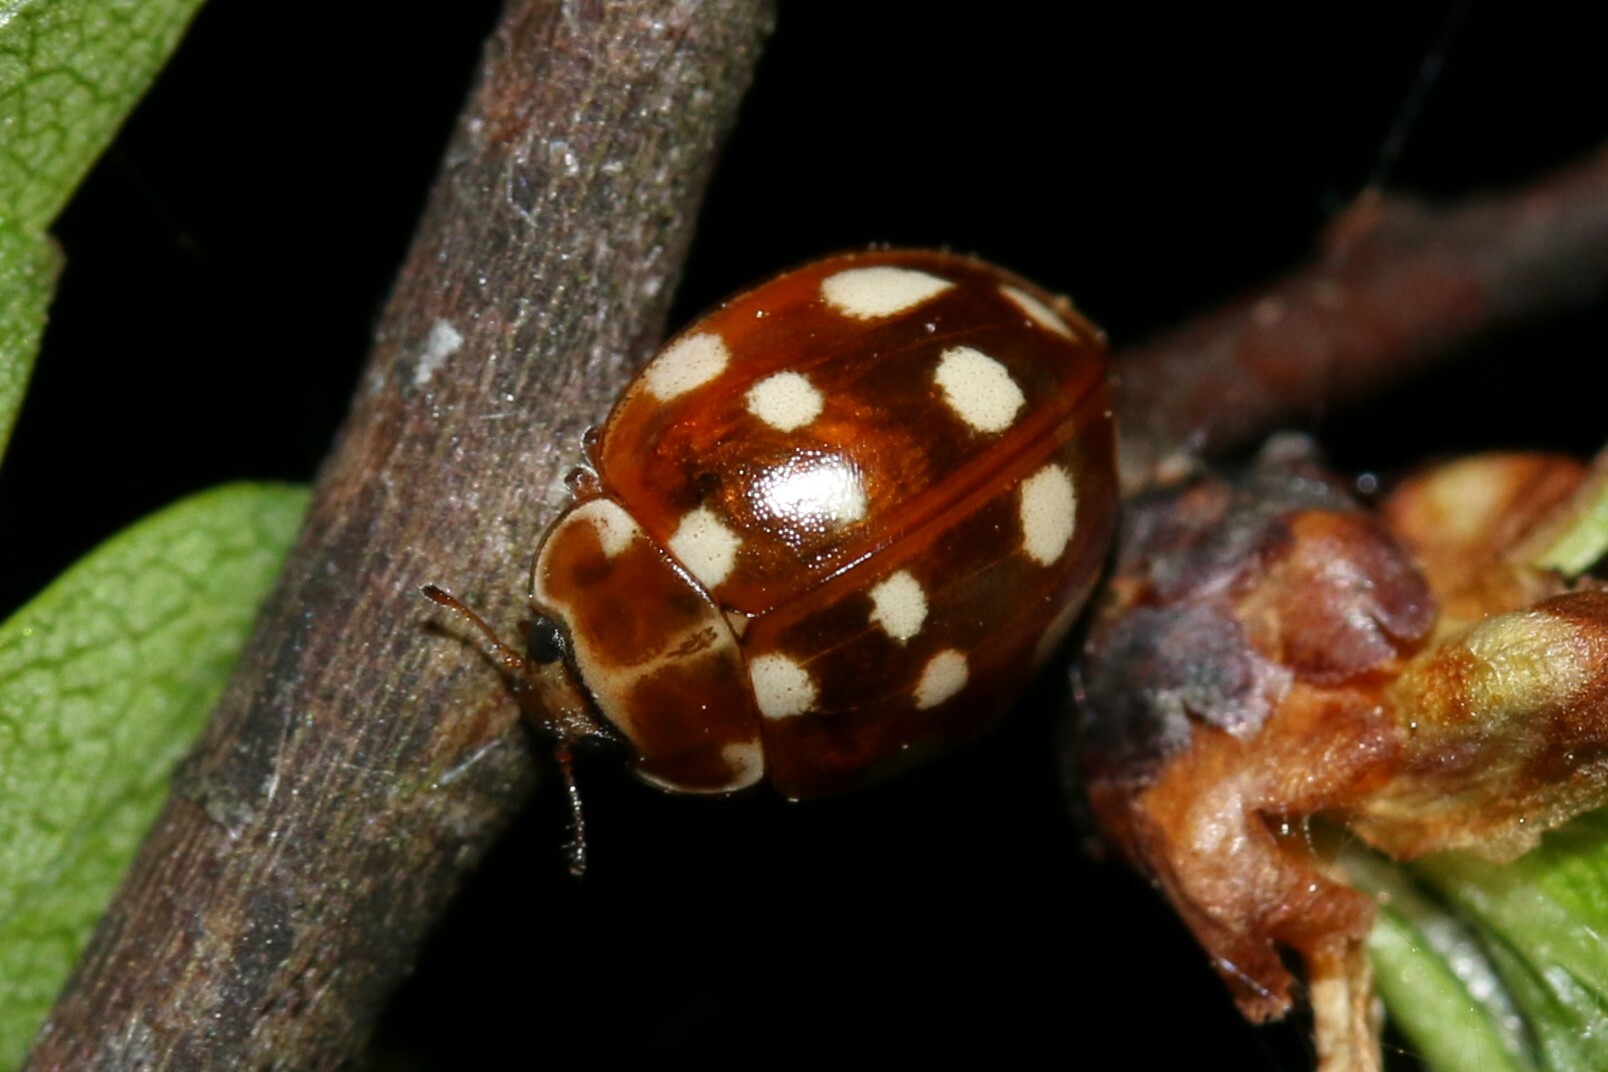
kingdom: Animalia
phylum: Arthropoda
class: Insecta
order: Coleoptera
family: Coccinellidae
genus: Calvia
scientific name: Calvia quatuordecimguttata
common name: Cream-spot ladybird
